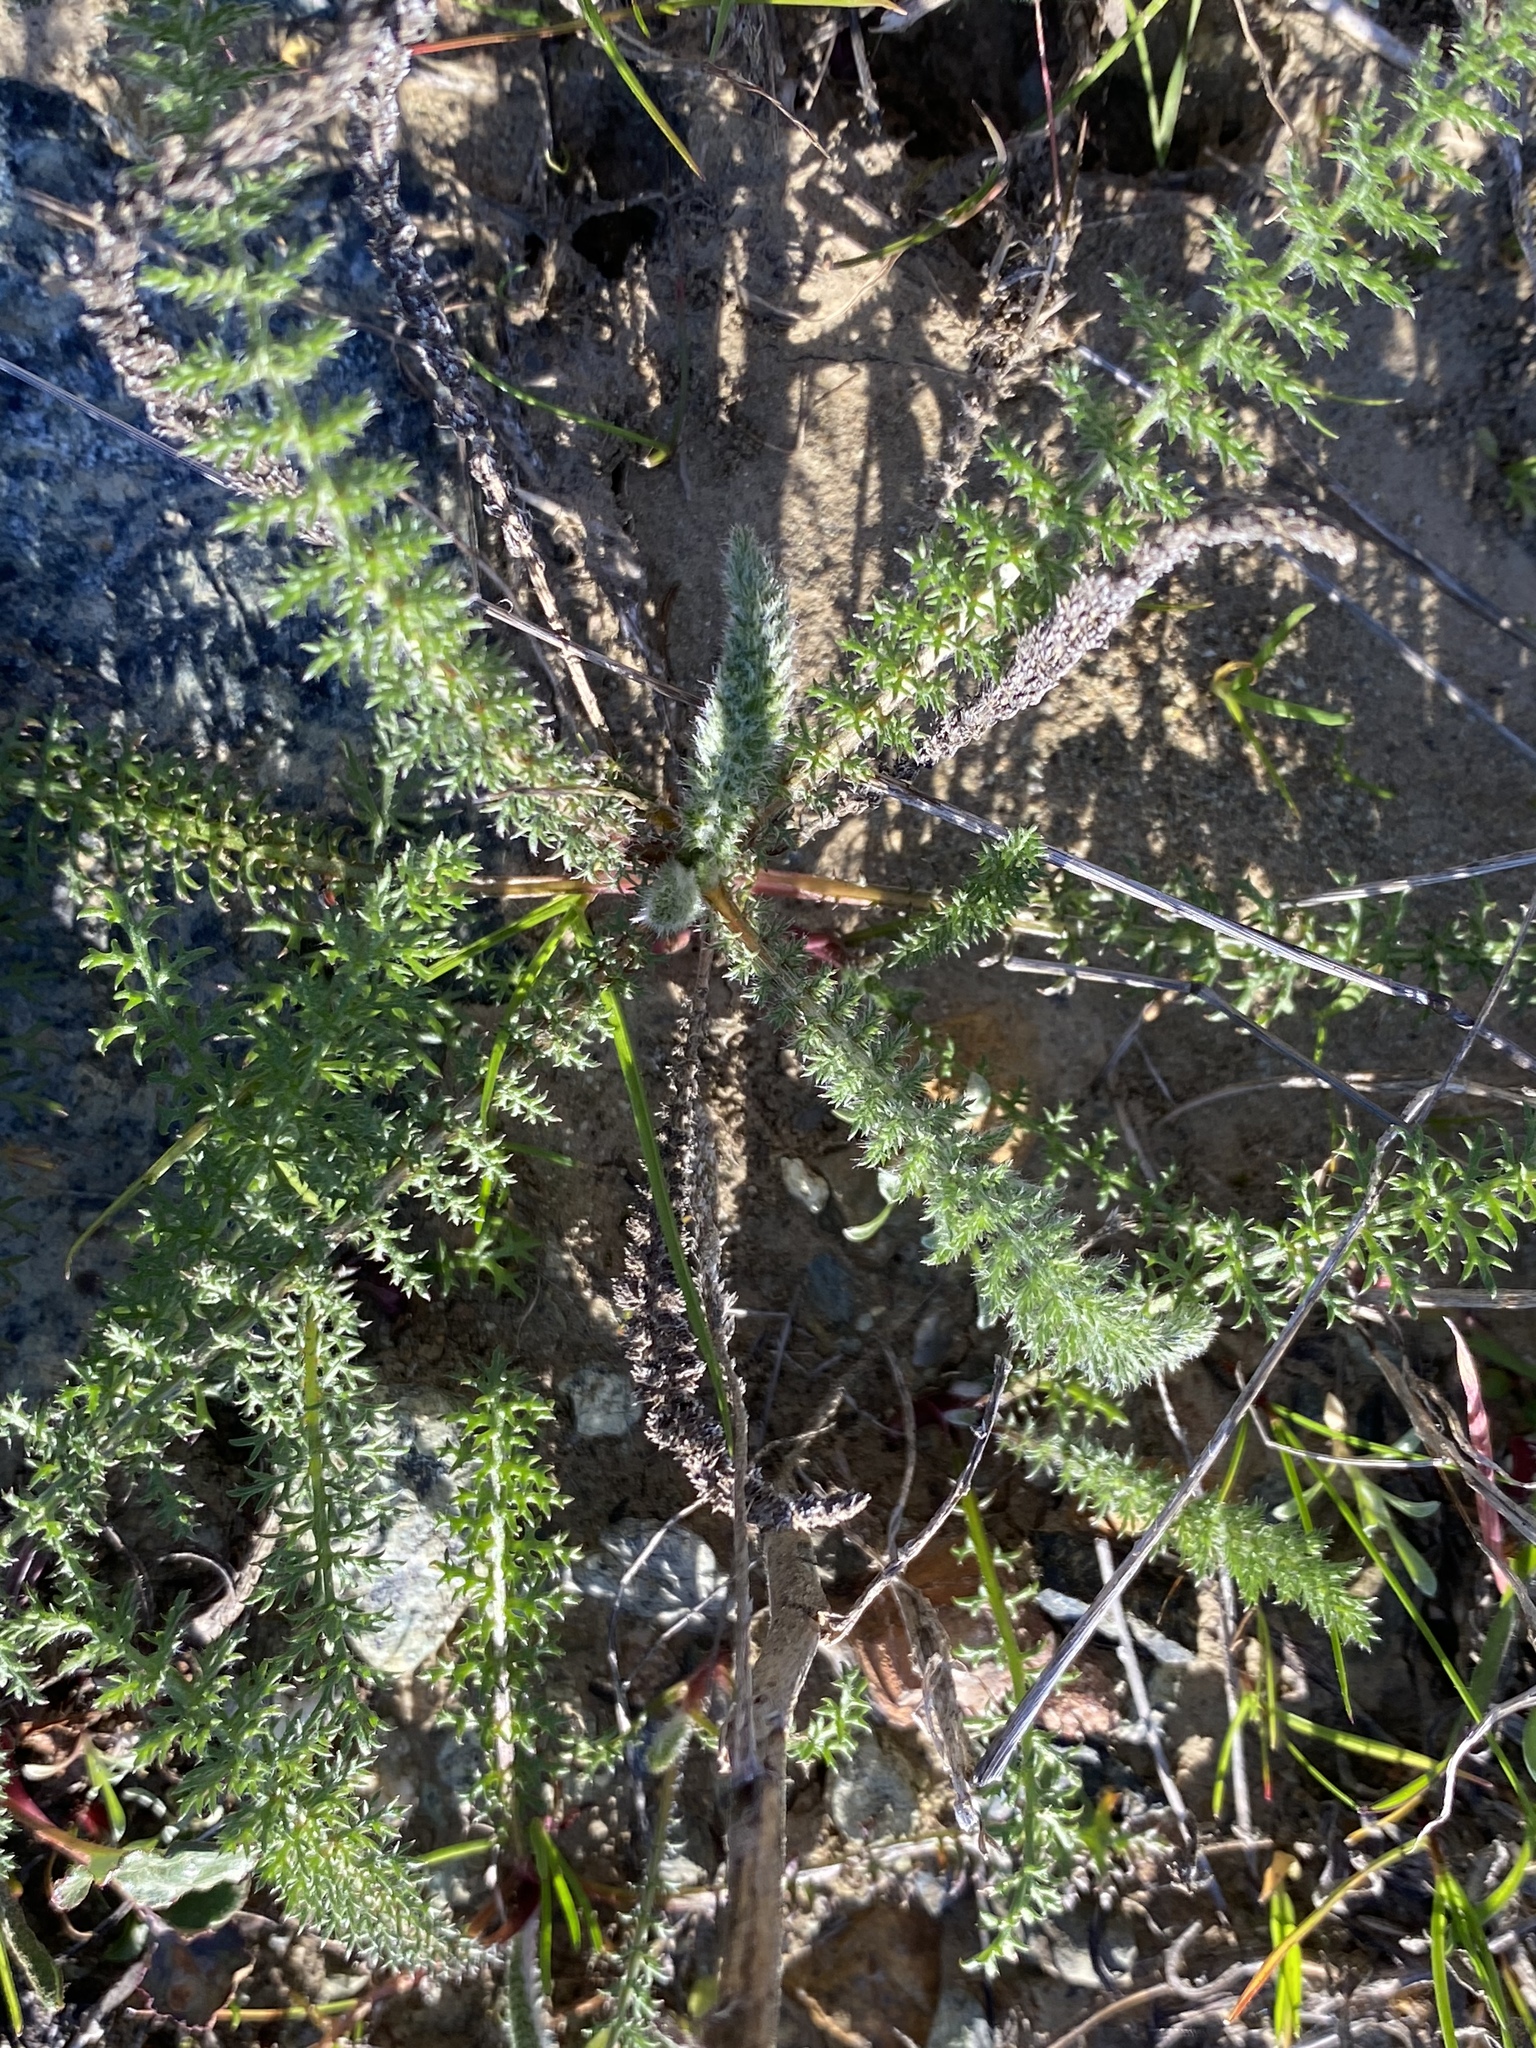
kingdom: Plantae
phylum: Tracheophyta
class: Magnoliopsida
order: Asterales
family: Asteraceae
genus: Achillea
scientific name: Achillea millefolium
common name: Yarrow
